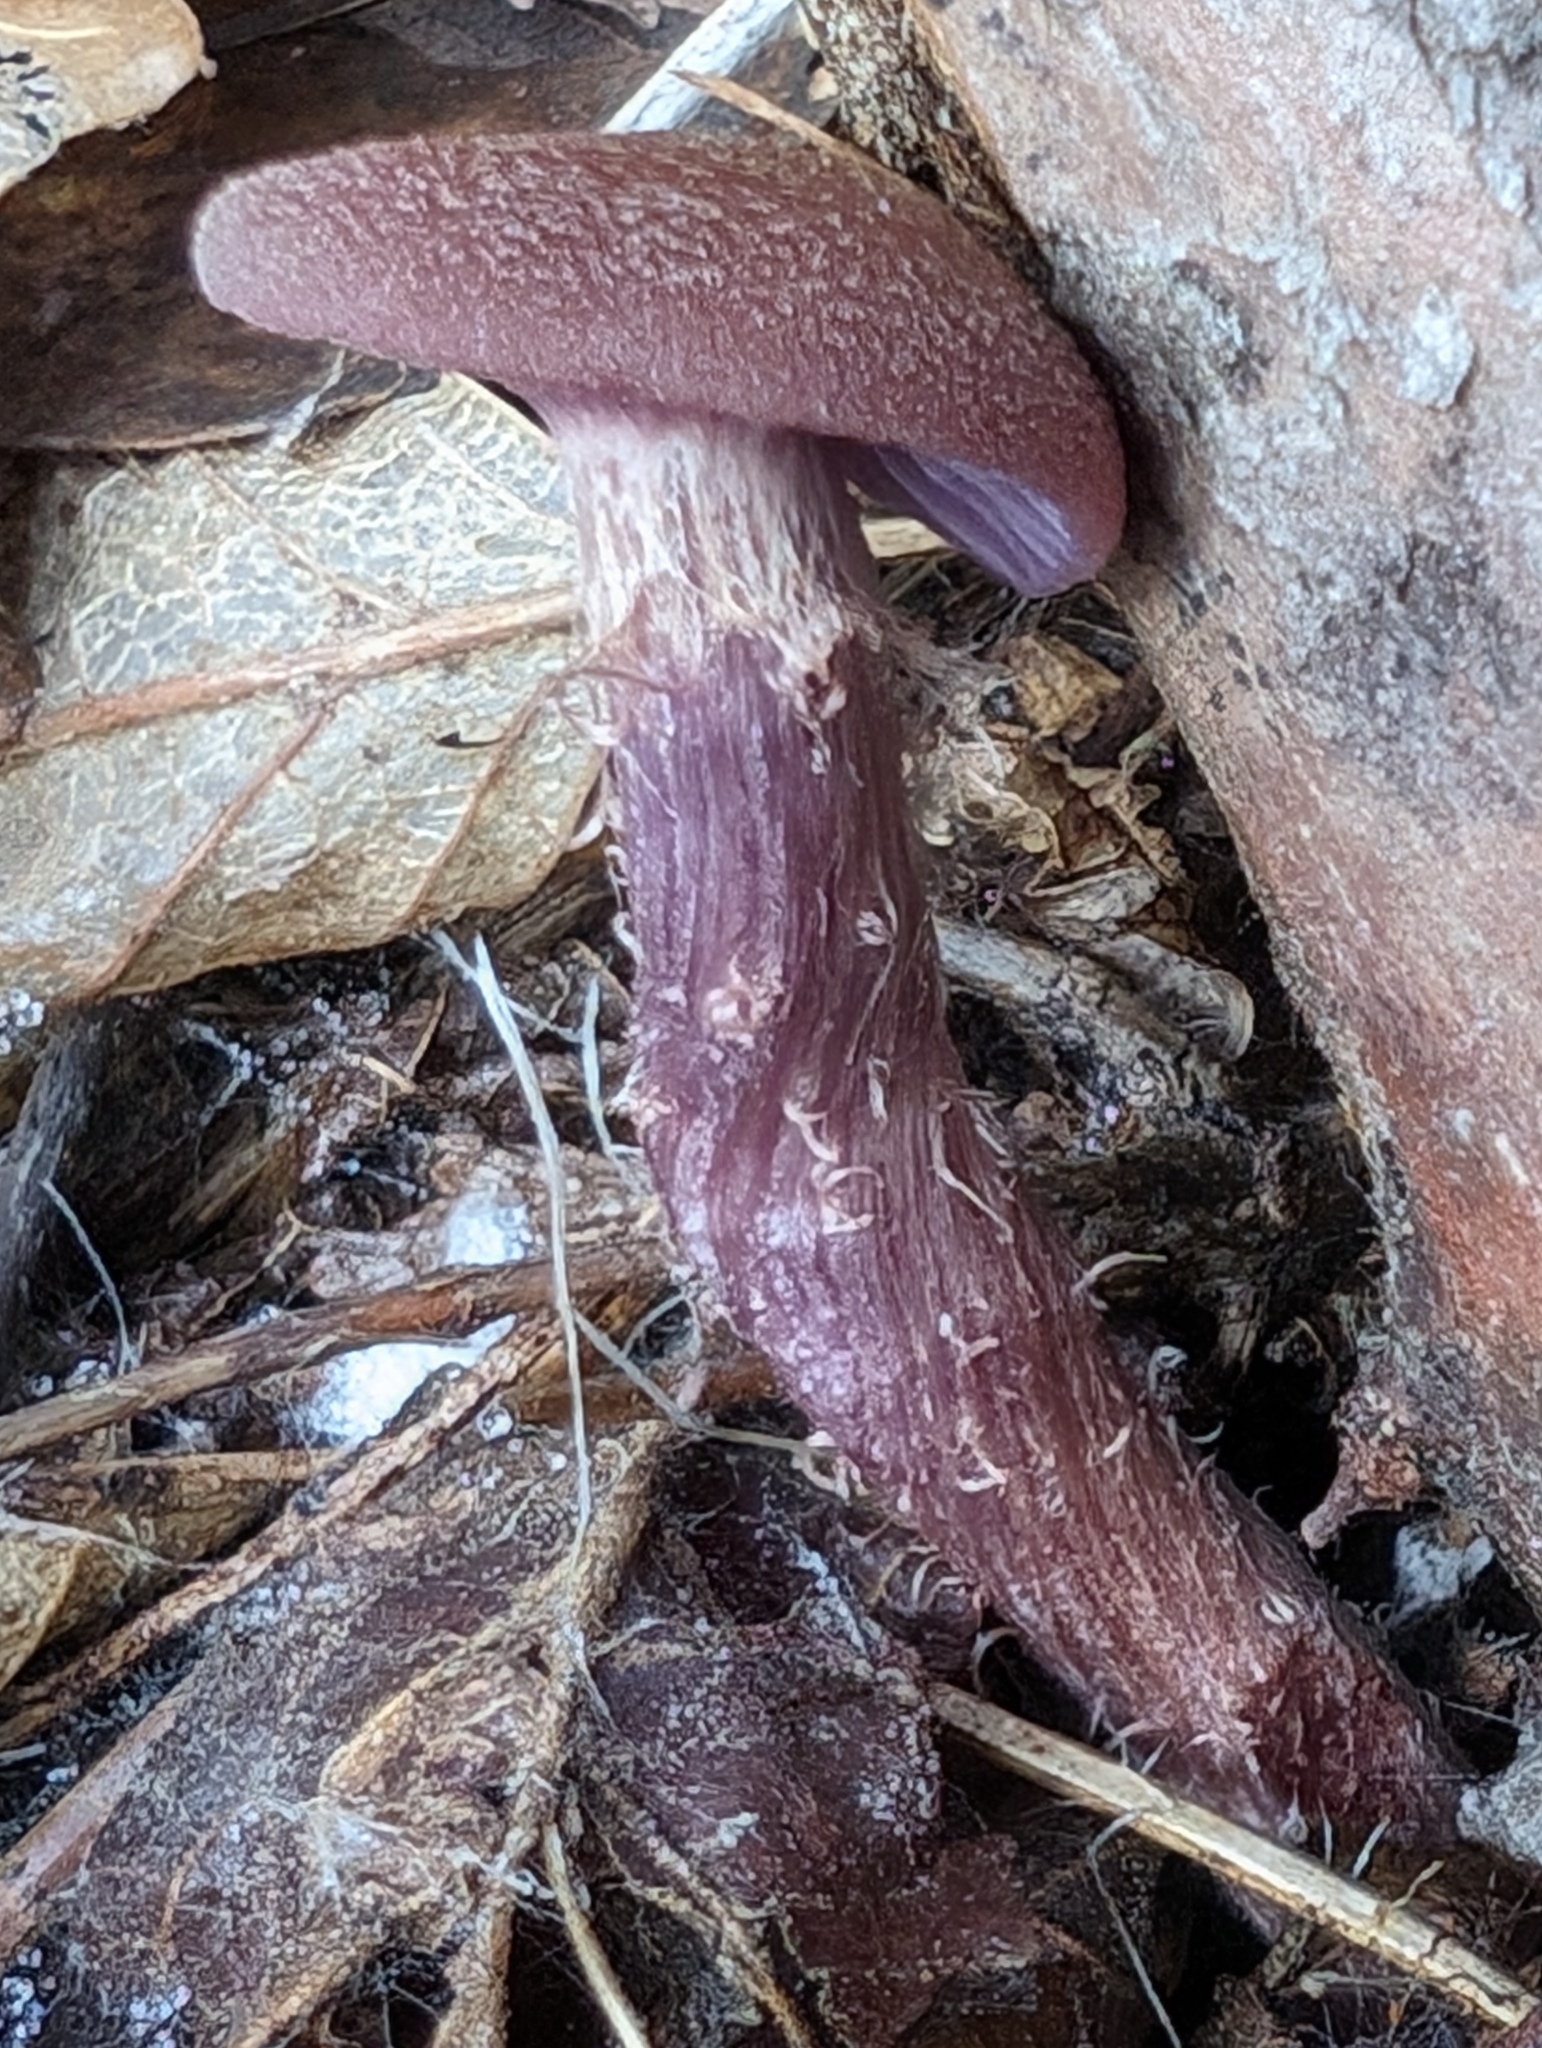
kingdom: Fungi
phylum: Basidiomycota
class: Agaricomycetes
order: Agaricales
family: Hydnangiaceae
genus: Laccaria
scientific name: Laccaria amethysteo-occidentalis
